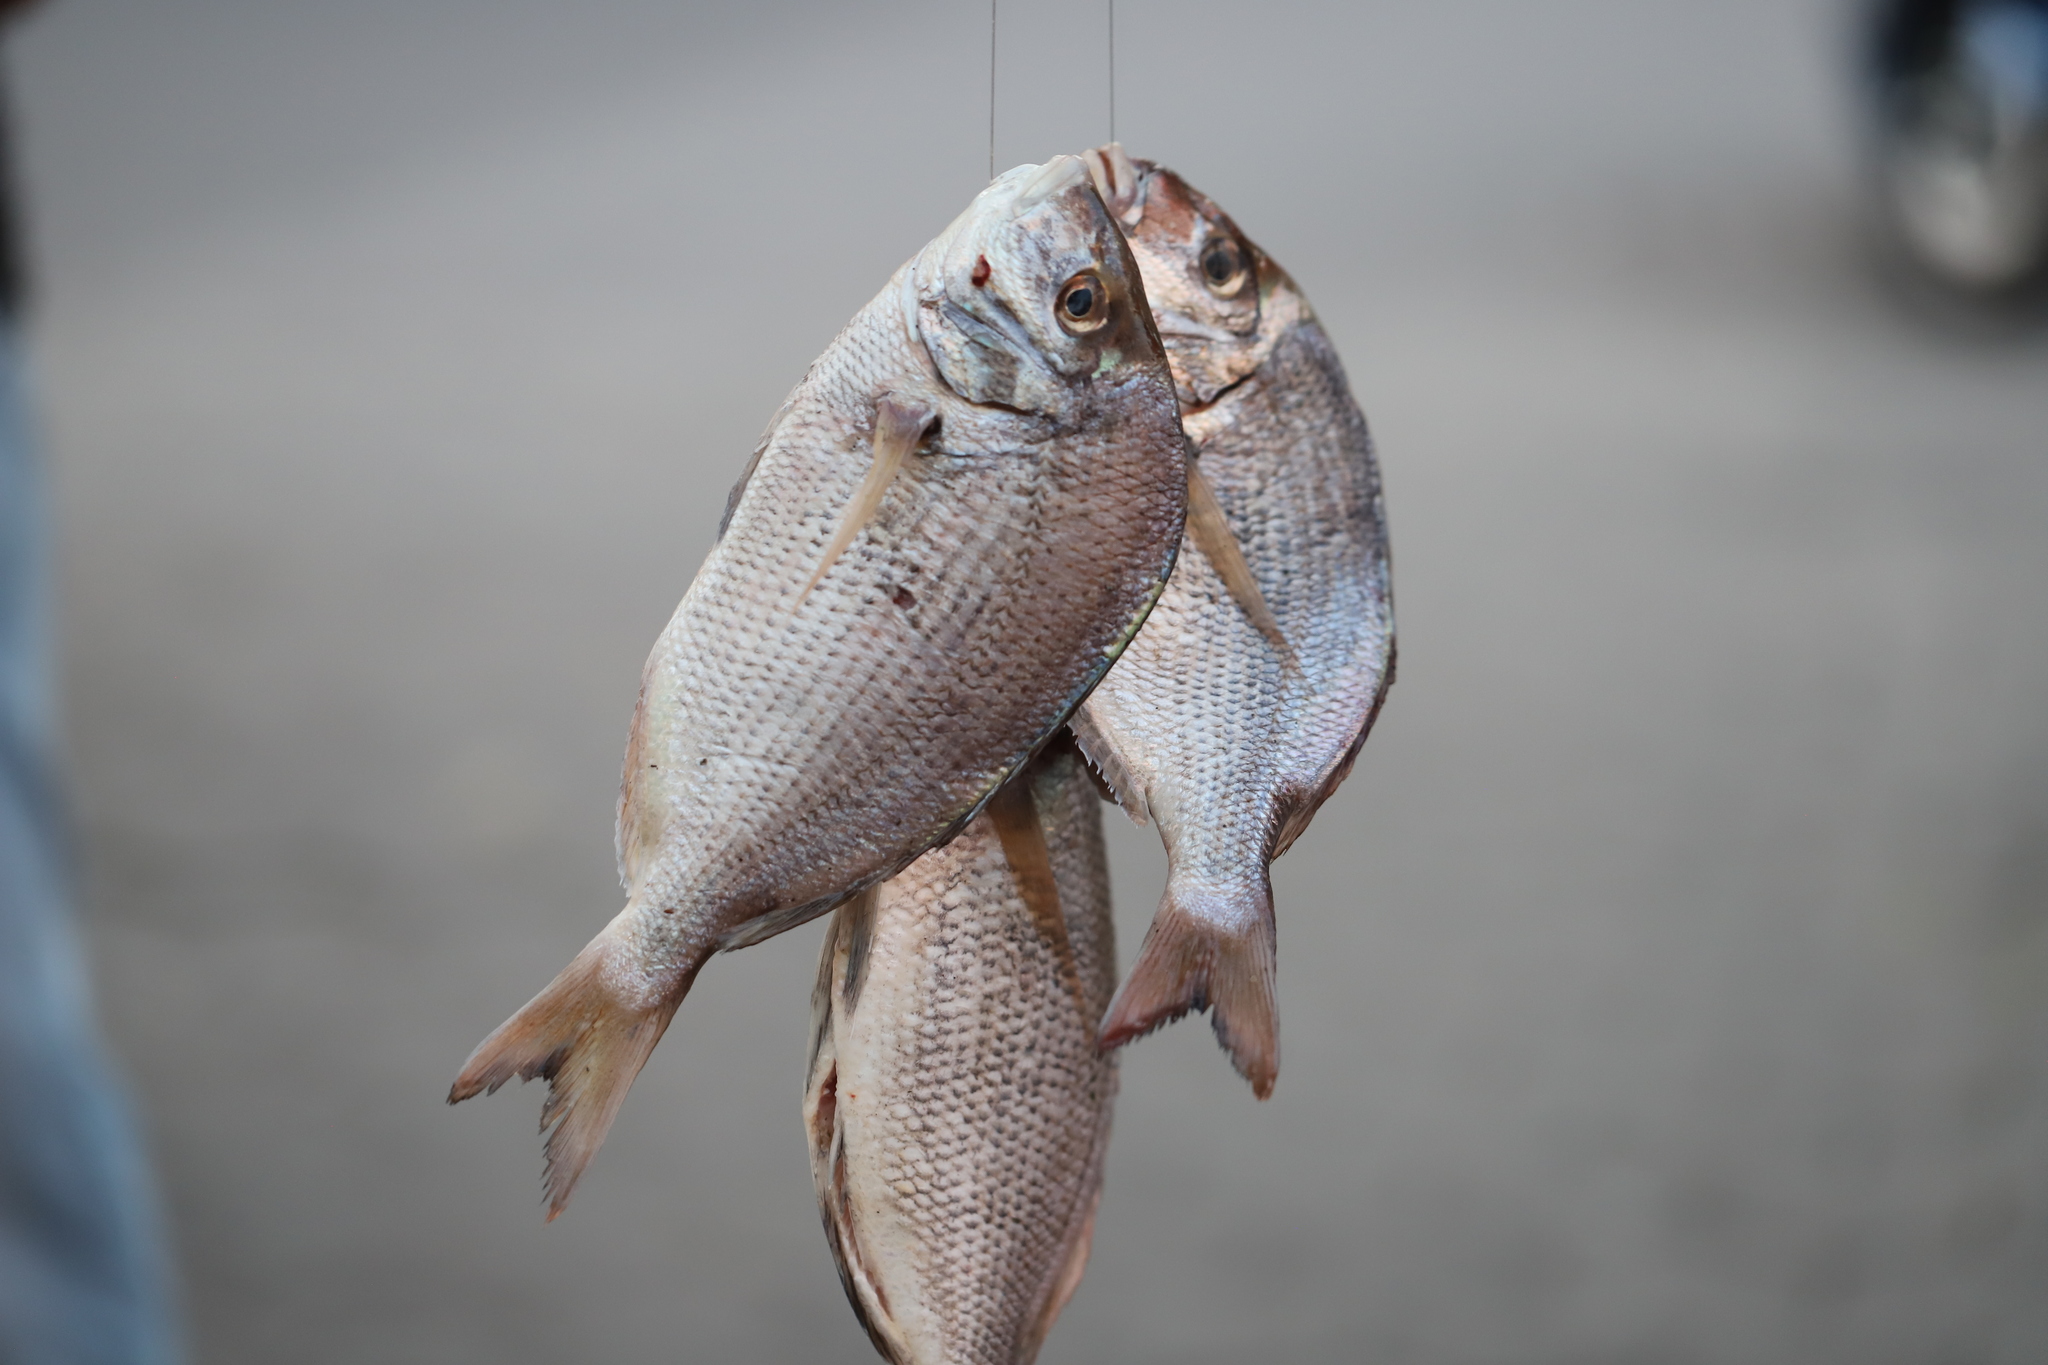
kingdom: Animalia
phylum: Chordata
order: Perciformes
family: Sparidae
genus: Stenotomus
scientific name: Stenotomus chrysops
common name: Scup
